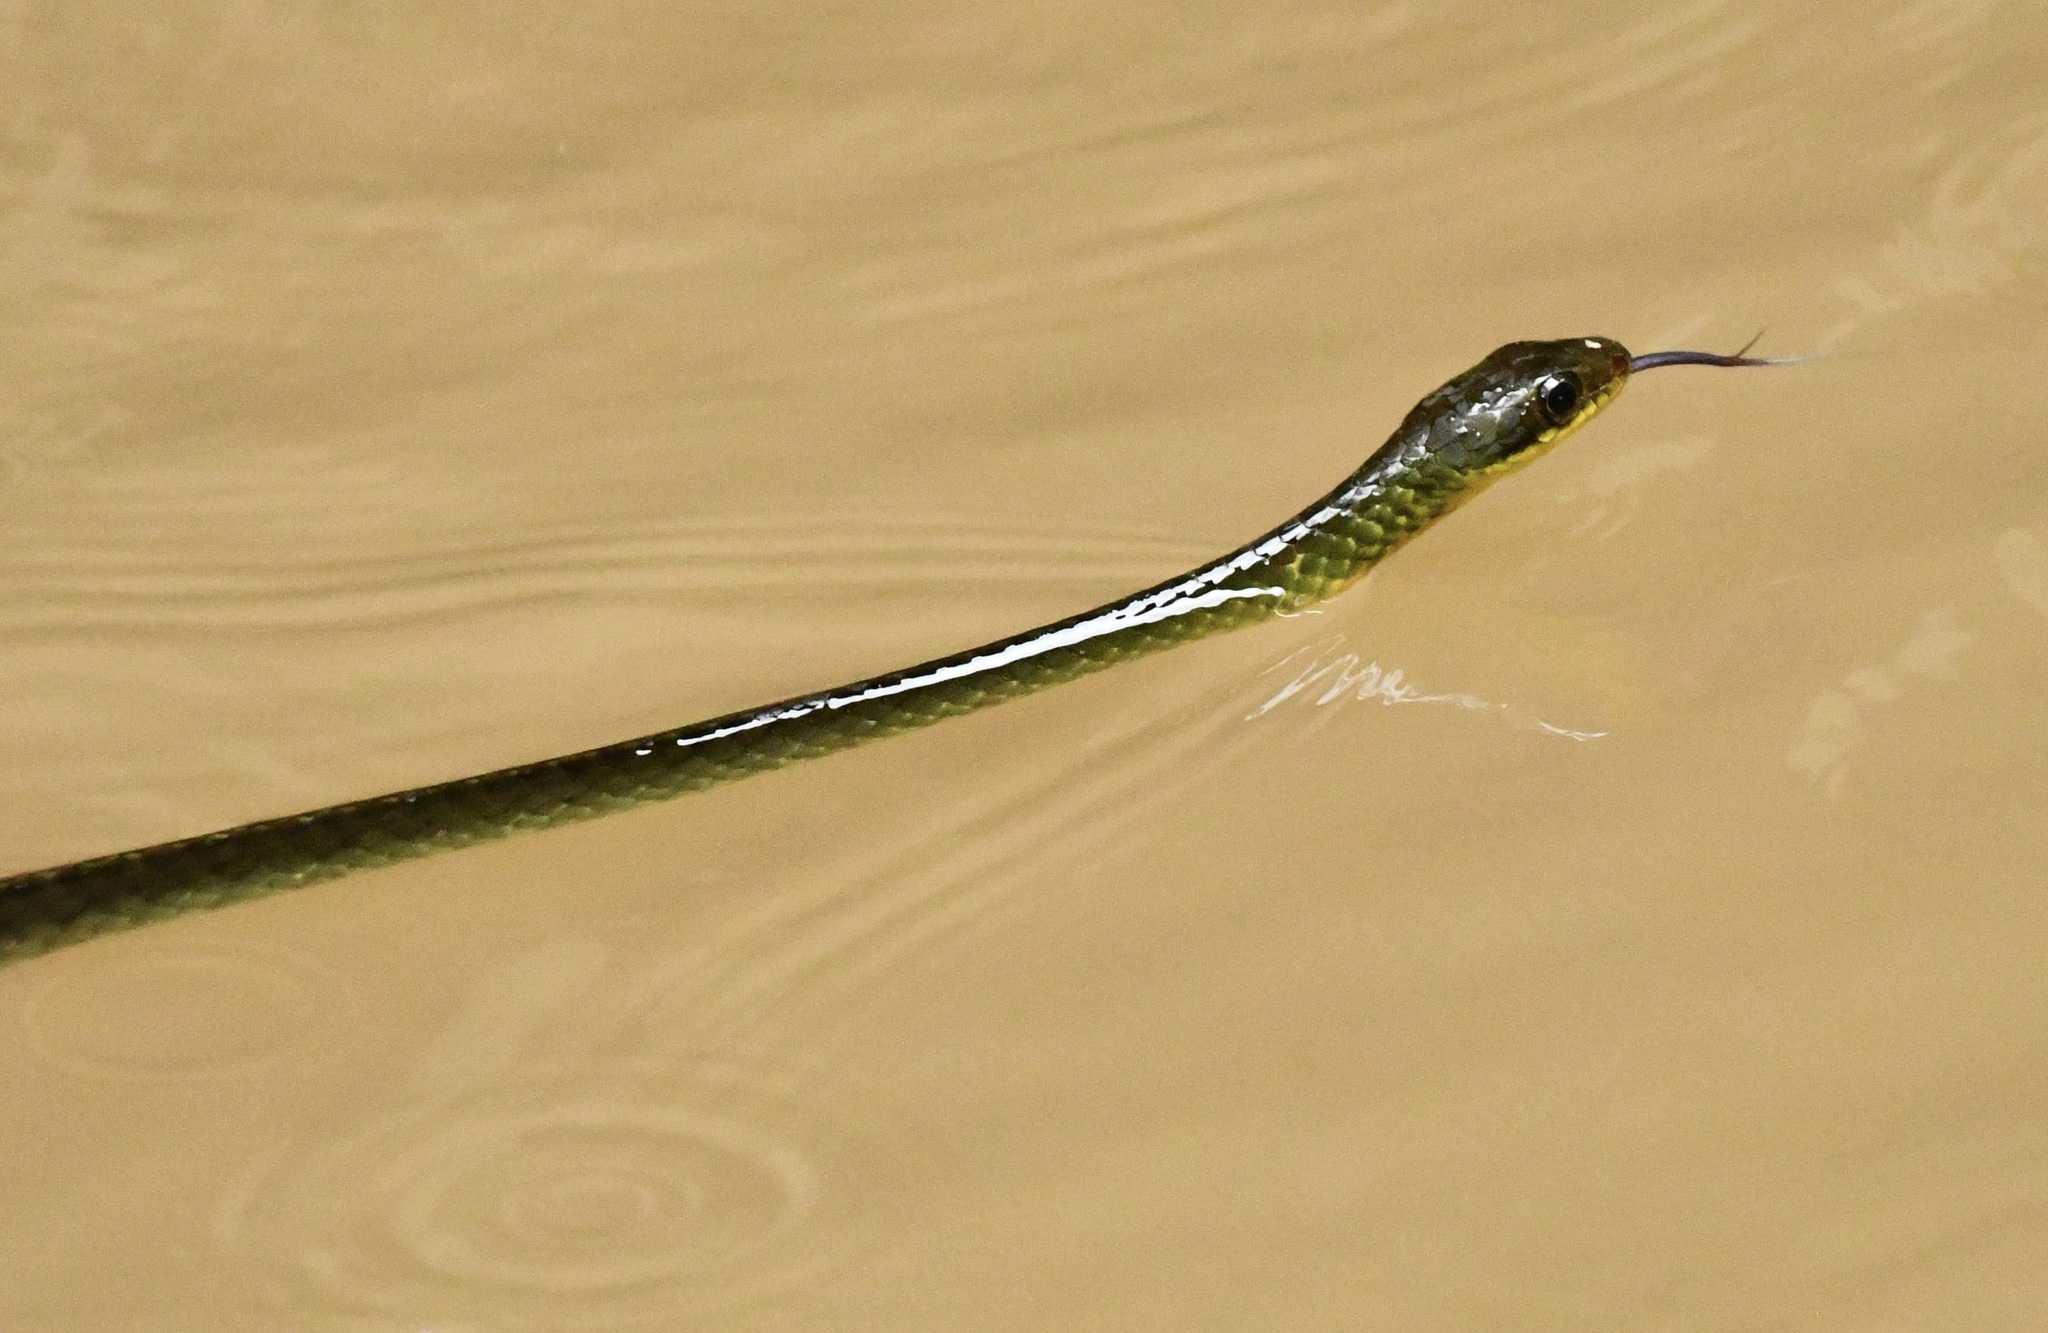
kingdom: Animalia
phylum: Chordata
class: Squamata
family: Colubridae
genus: Chironius
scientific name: Chironius fuscus
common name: Brown sipo
